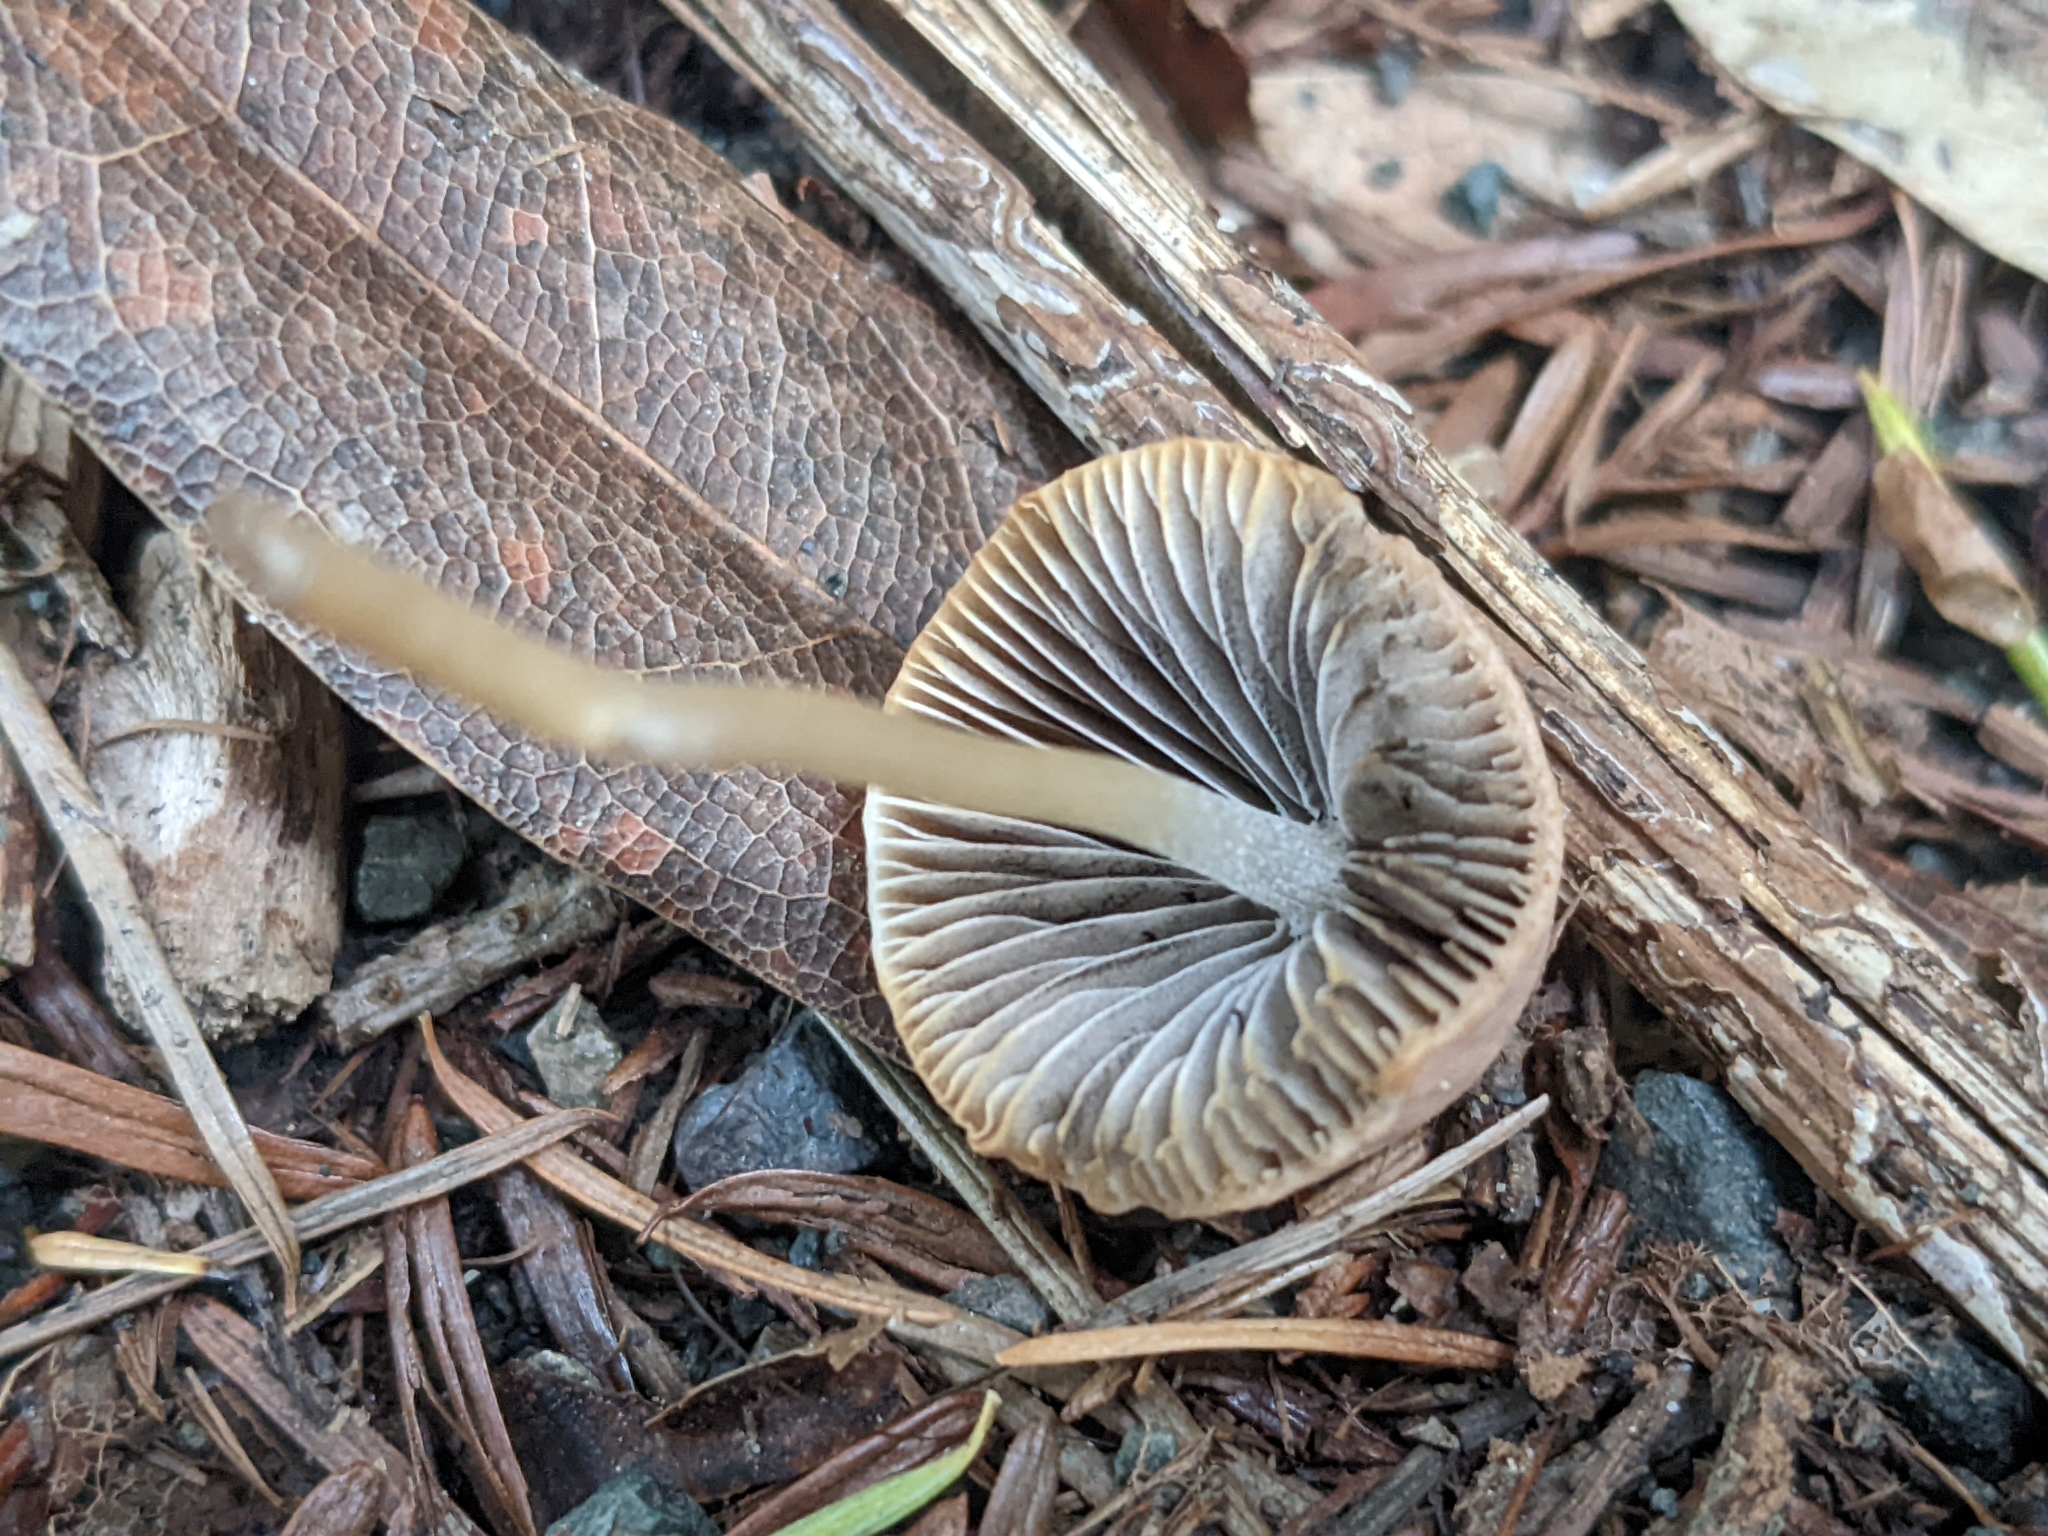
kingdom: Fungi
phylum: Basidiomycota
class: Agaricomycetes
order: Agaricales
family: Psathyrellaceae
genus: Psathyrella
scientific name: Psathyrella corrugis
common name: Red edge brittlestem
